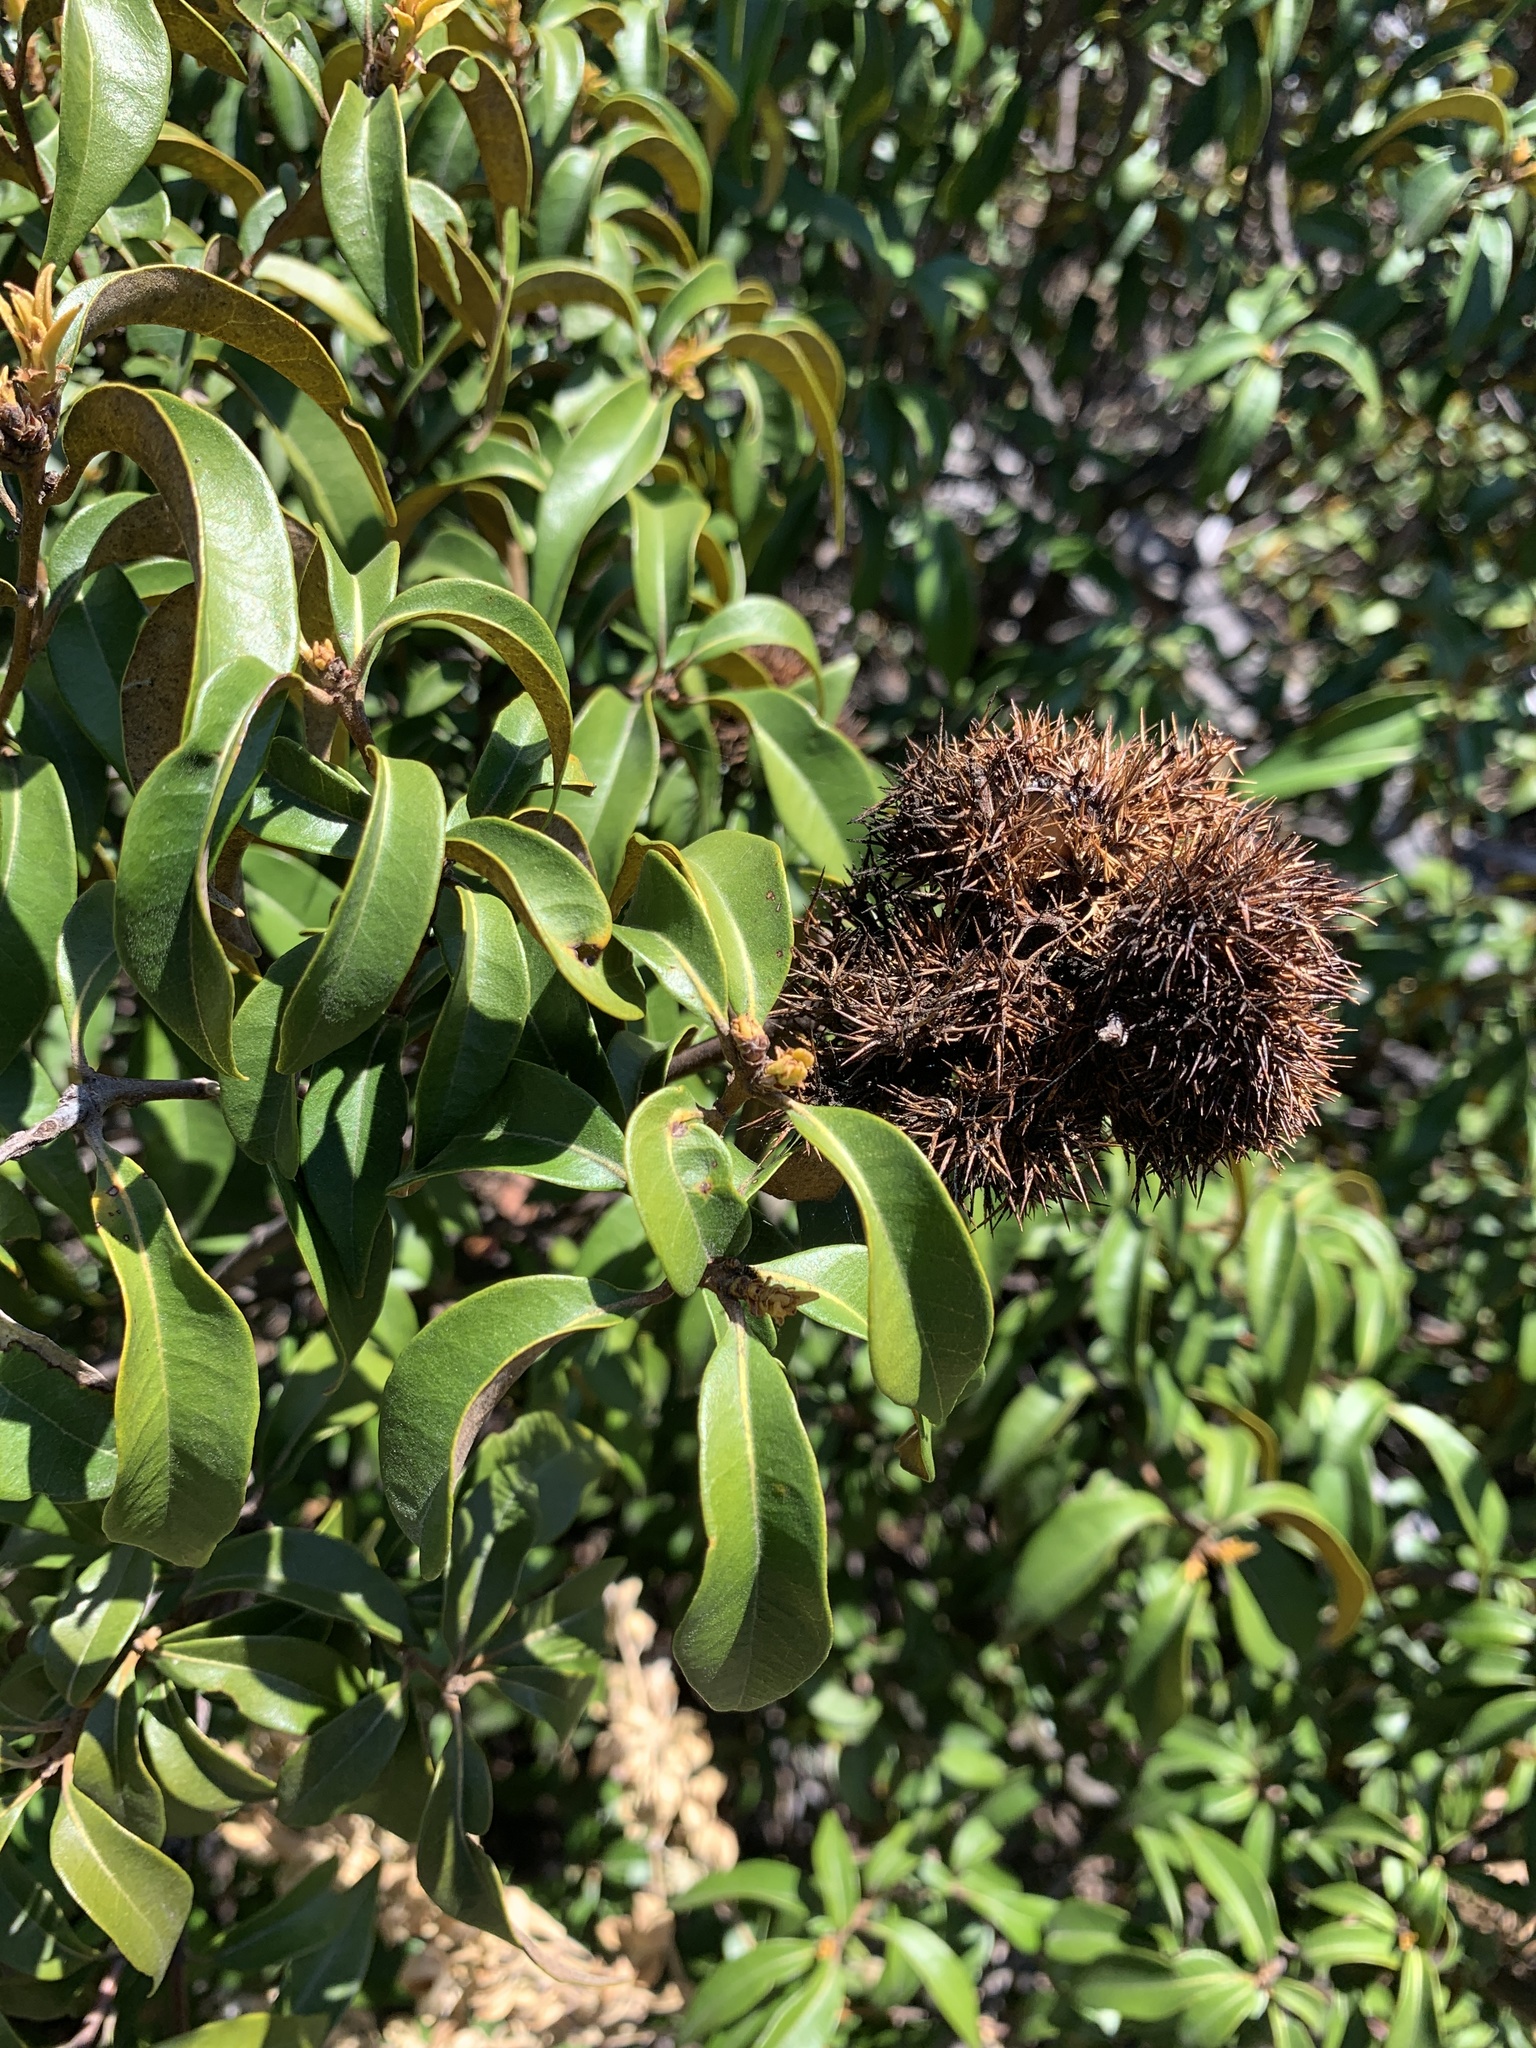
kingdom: Plantae
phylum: Tracheophyta
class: Magnoliopsida
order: Fagales
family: Fagaceae
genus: Chrysolepis
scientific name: Chrysolepis chrysophylla
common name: Giant chinquapin
